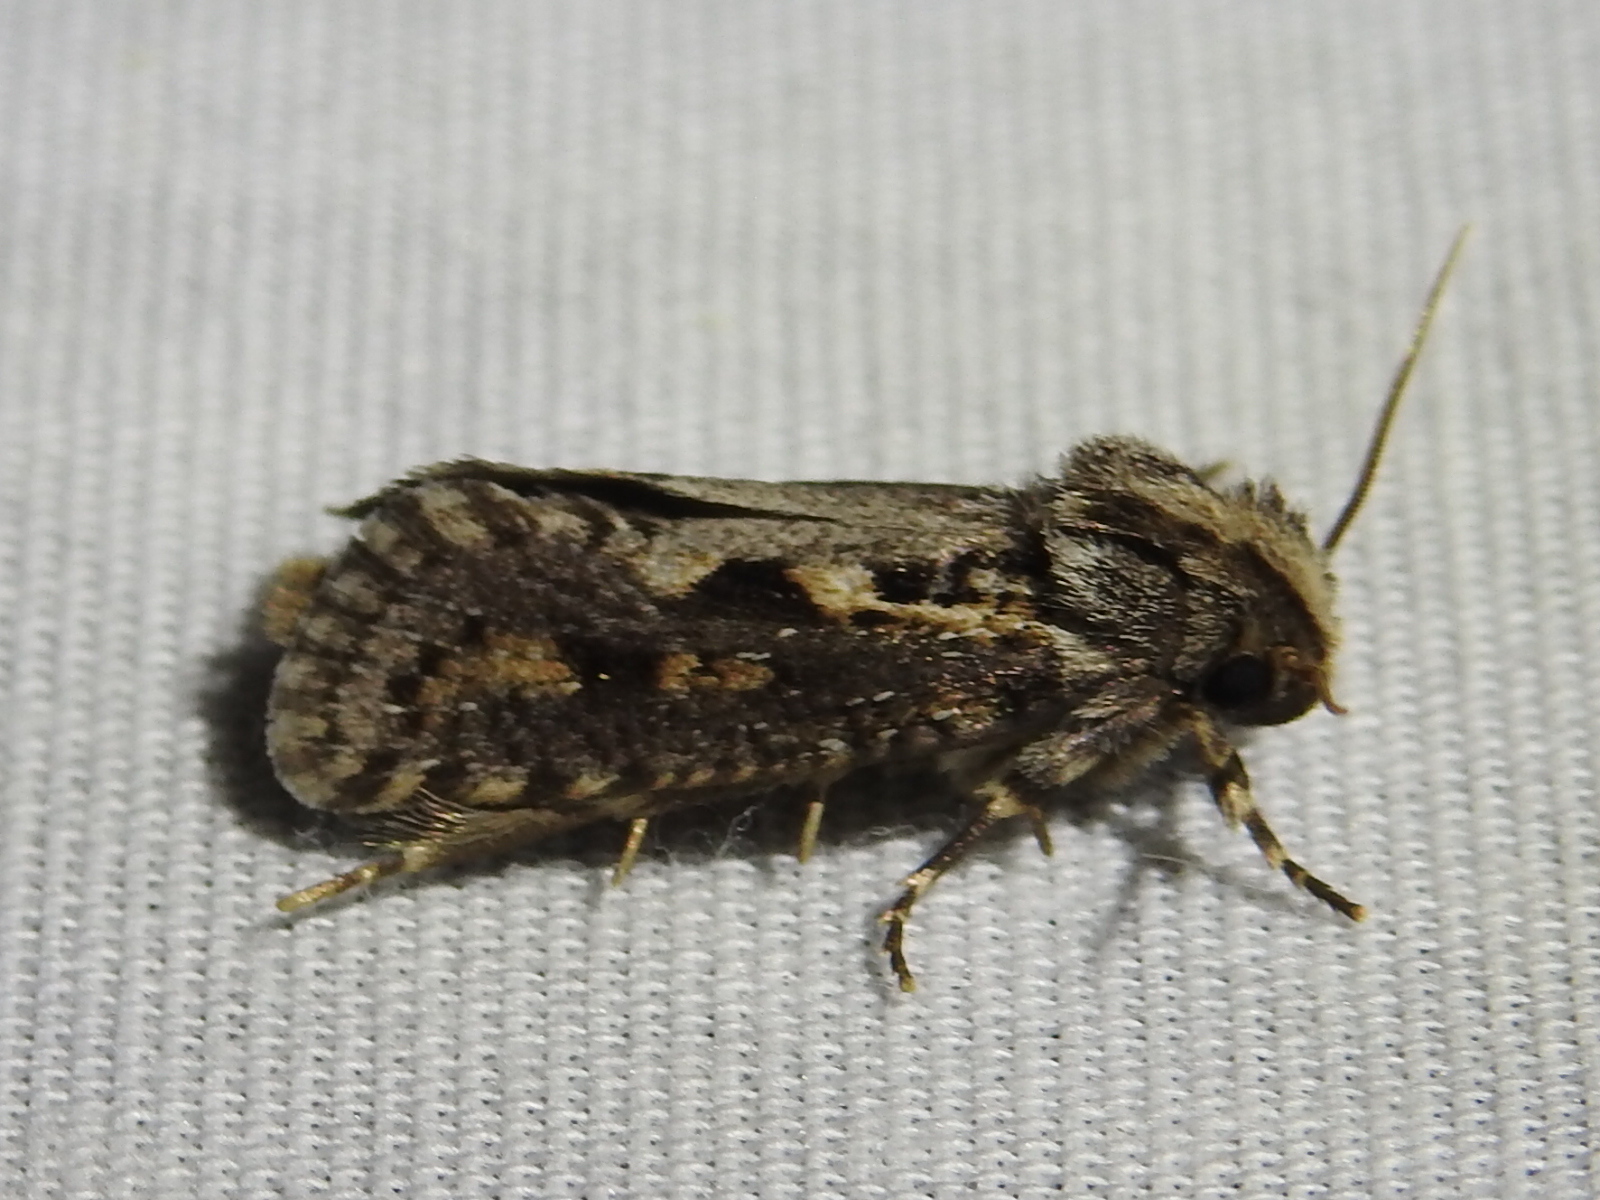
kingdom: Animalia
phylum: Arthropoda
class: Insecta
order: Lepidoptera
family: Tineidae
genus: Acrolophus
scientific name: Acrolophus popeanella
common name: Clemens' grass tubeworm moth
